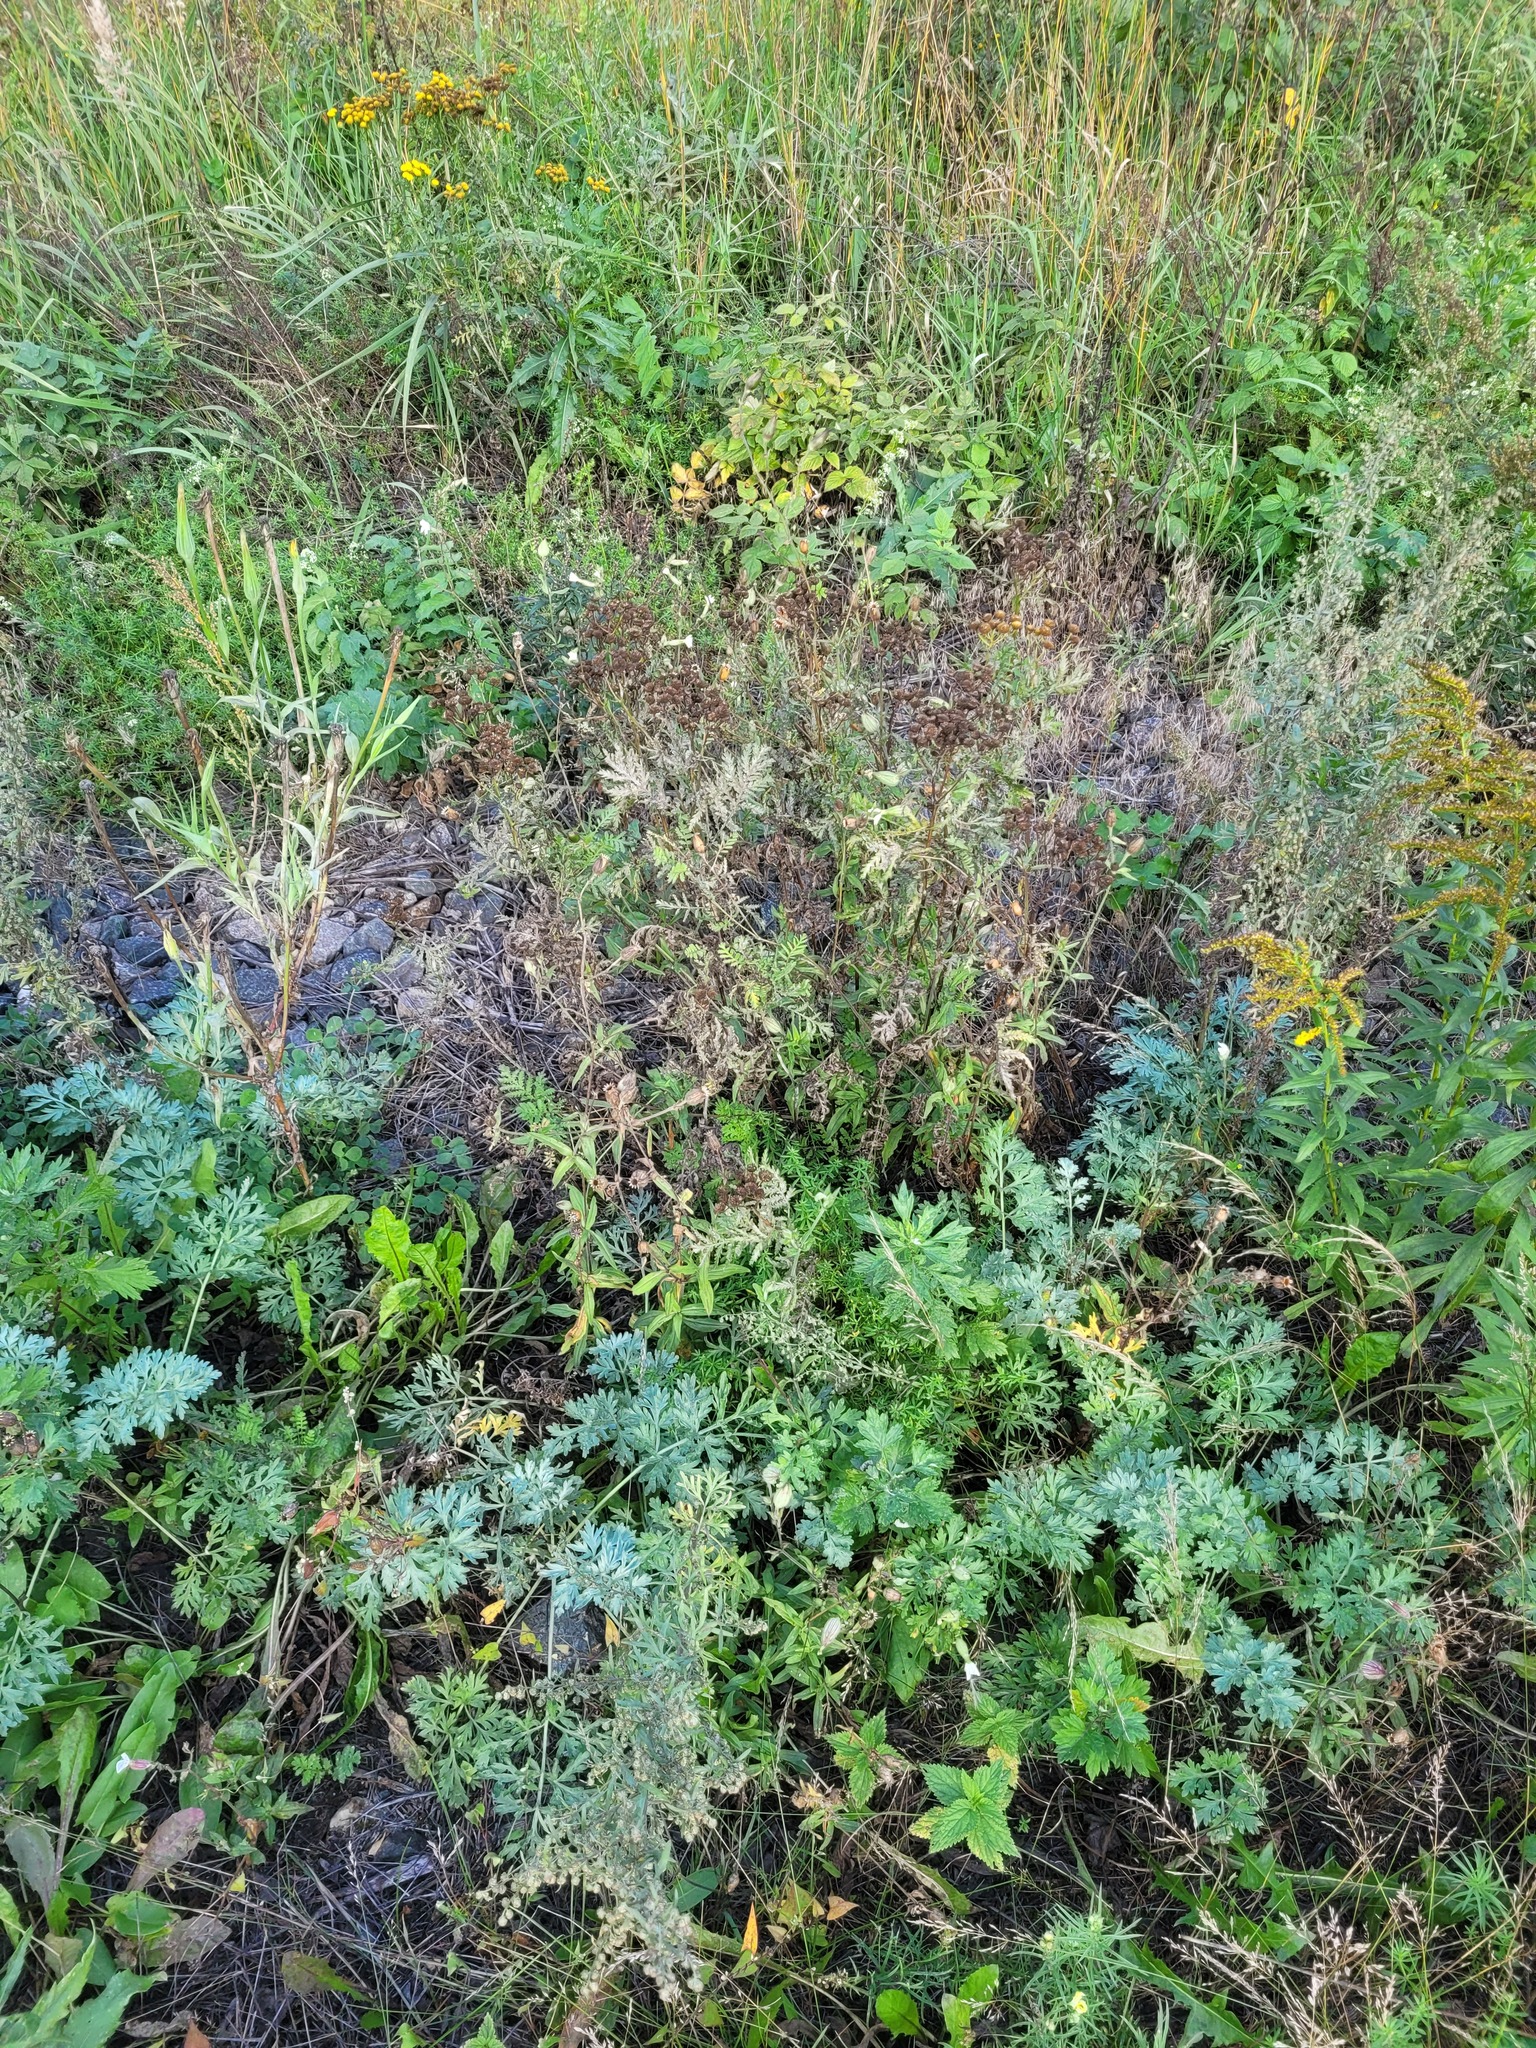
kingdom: Plantae
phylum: Tracheophyta
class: Magnoliopsida
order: Caryophyllales
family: Caryophyllaceae
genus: Silene
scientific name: Silene latifolia
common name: White campion
